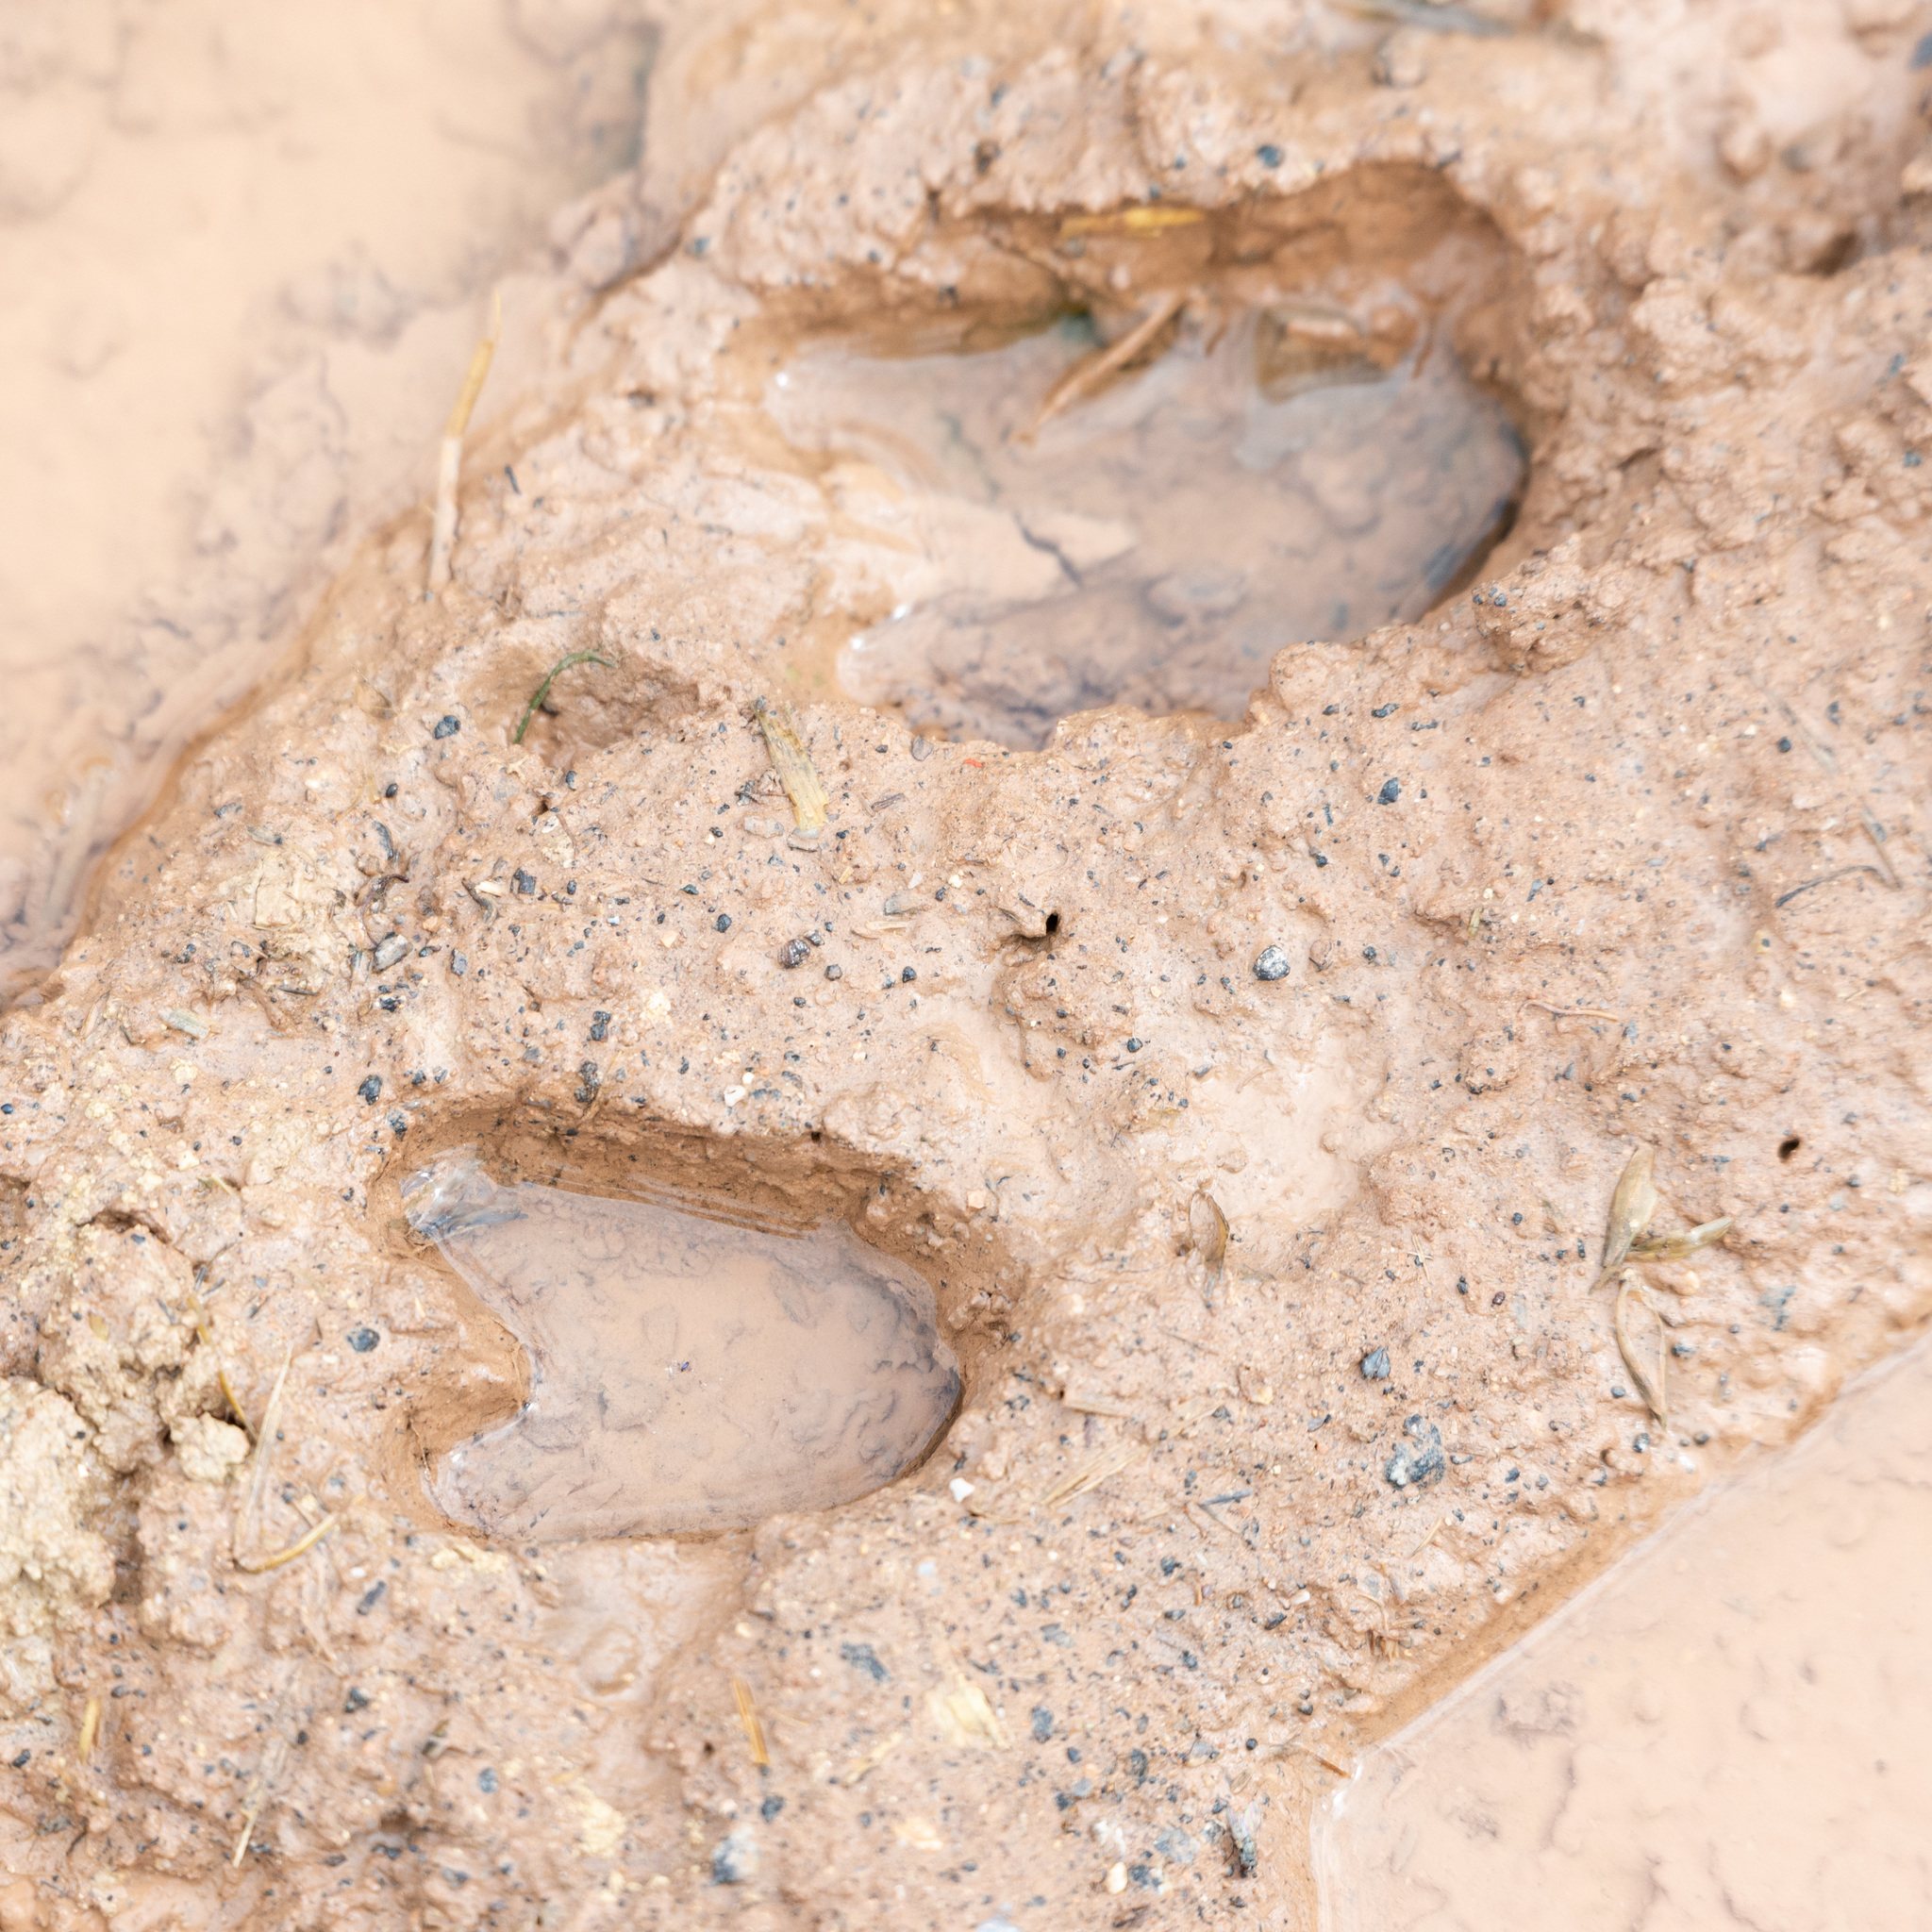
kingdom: Animalia
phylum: Chordata
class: Mammalia
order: Artiodactyla
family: Cervidae
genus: Capreolus
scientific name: Capreolus capreolus
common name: Western roe deer
